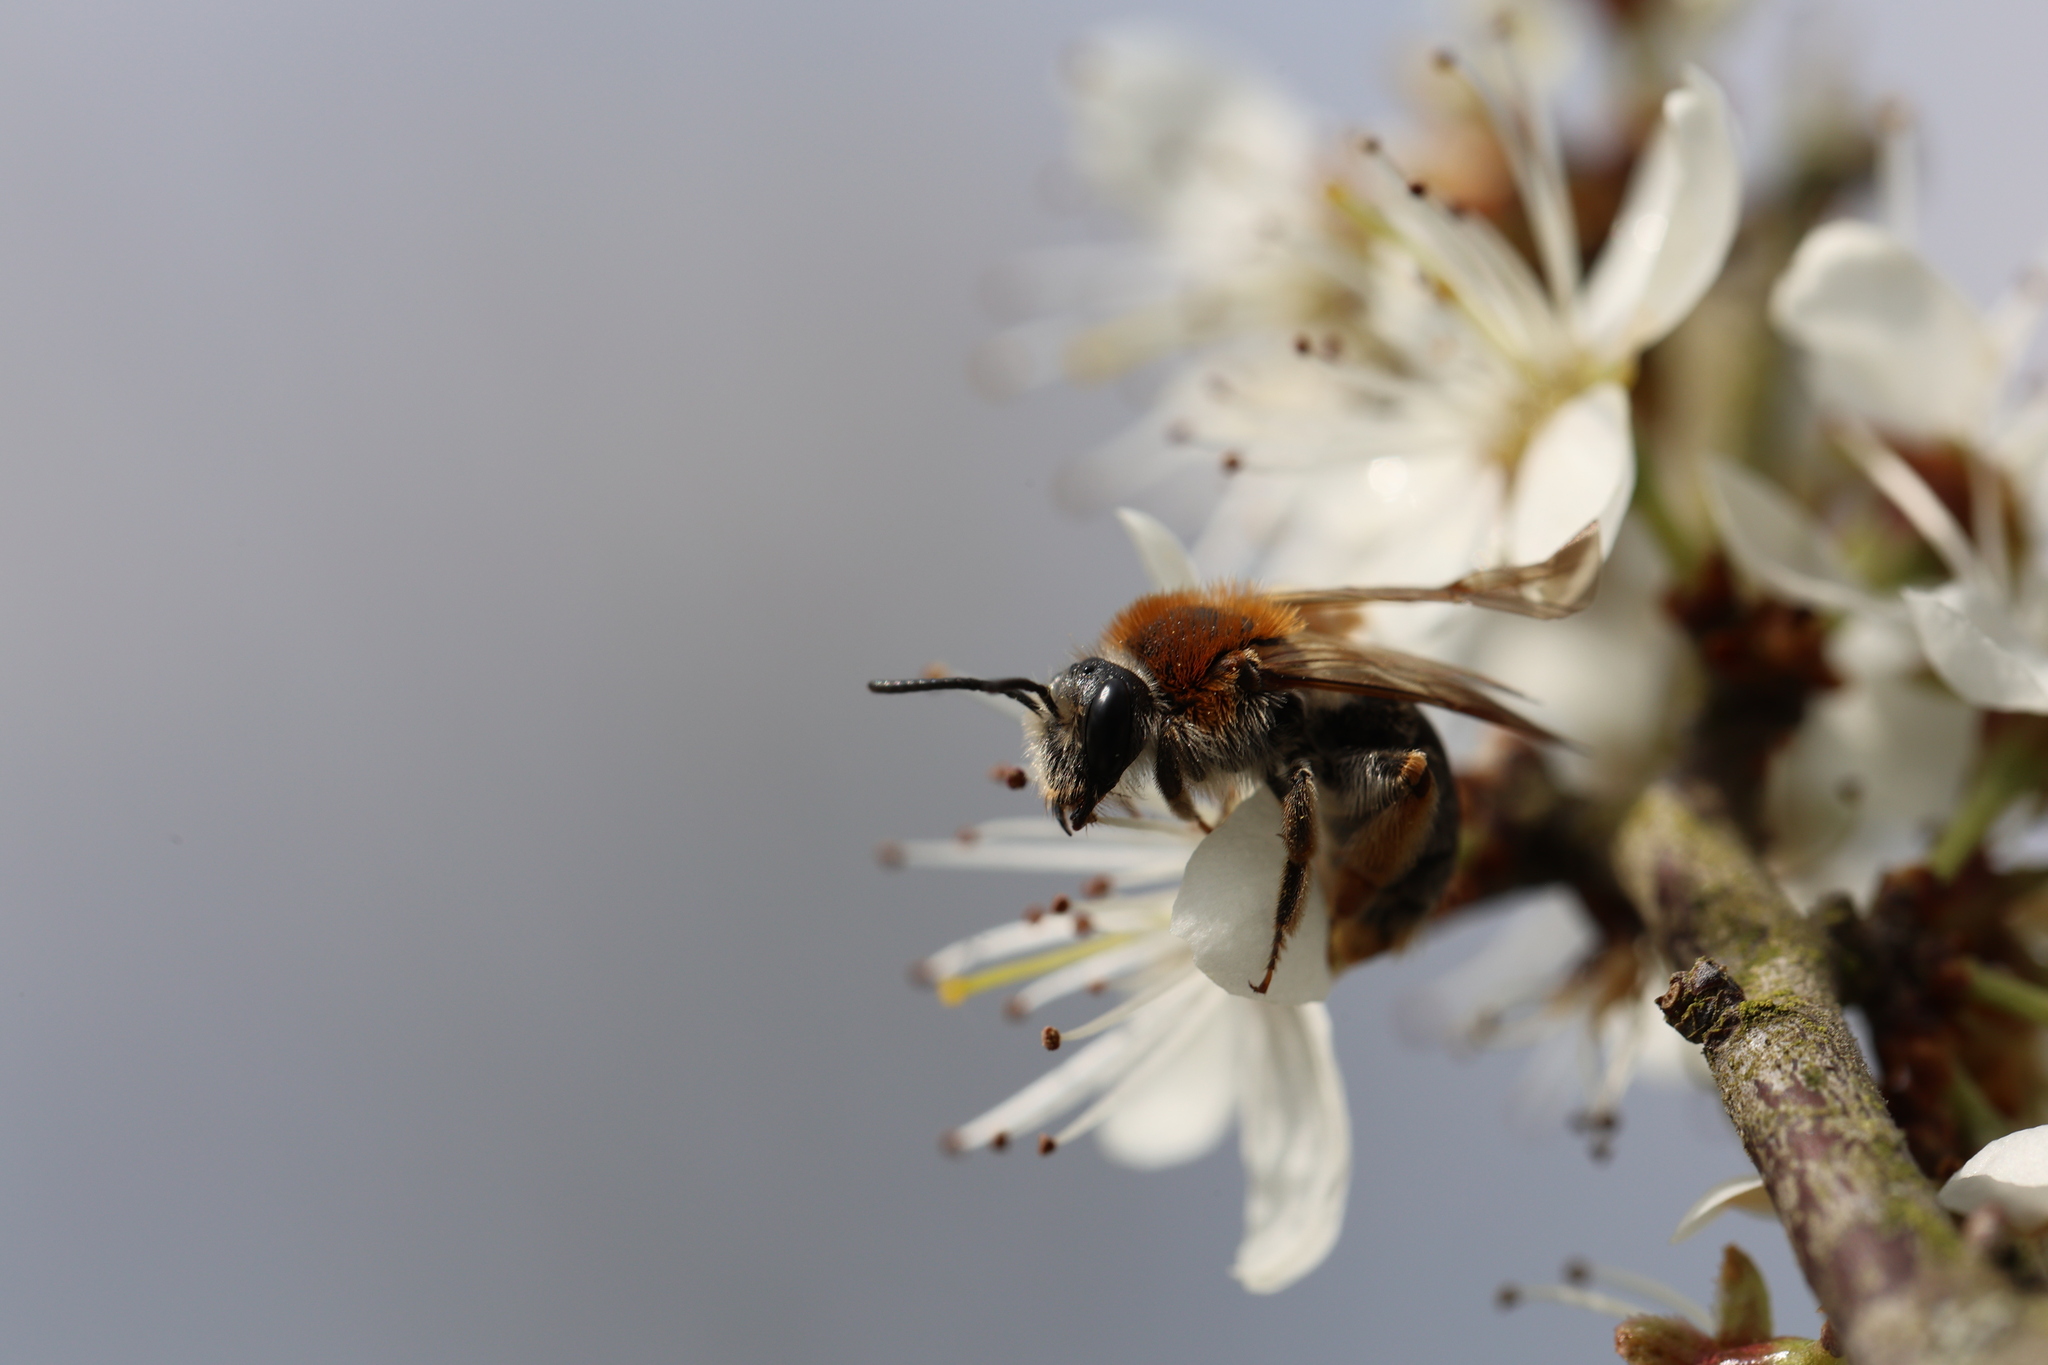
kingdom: Animalia
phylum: Arthropoda
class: Insecta
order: Hymenoptera
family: Andrenidae
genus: Andrena
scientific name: Andrena haemorrhoa
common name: Early mining bee
